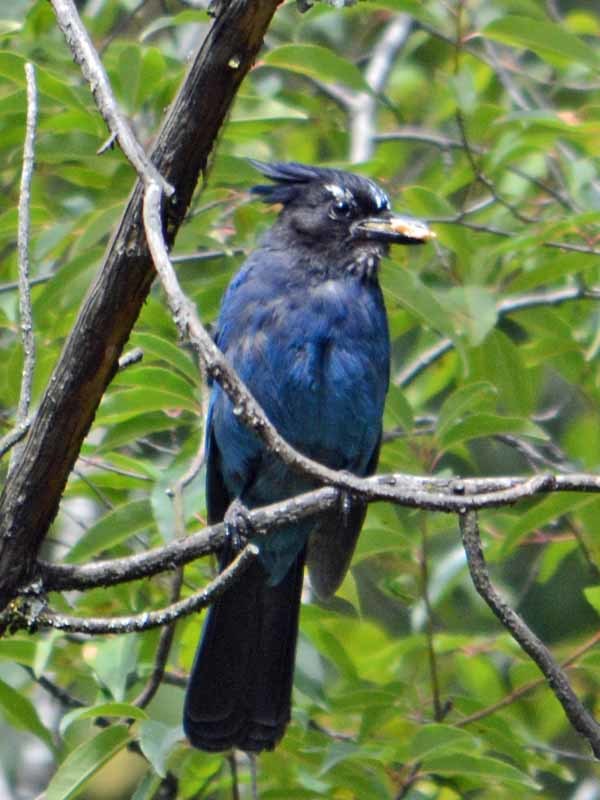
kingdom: Animalia
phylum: Chordata
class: Aves
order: Passeriformes
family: Corvidae
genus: Cyanocitta
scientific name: Cyanocitta stelleri
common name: Steller's jay
